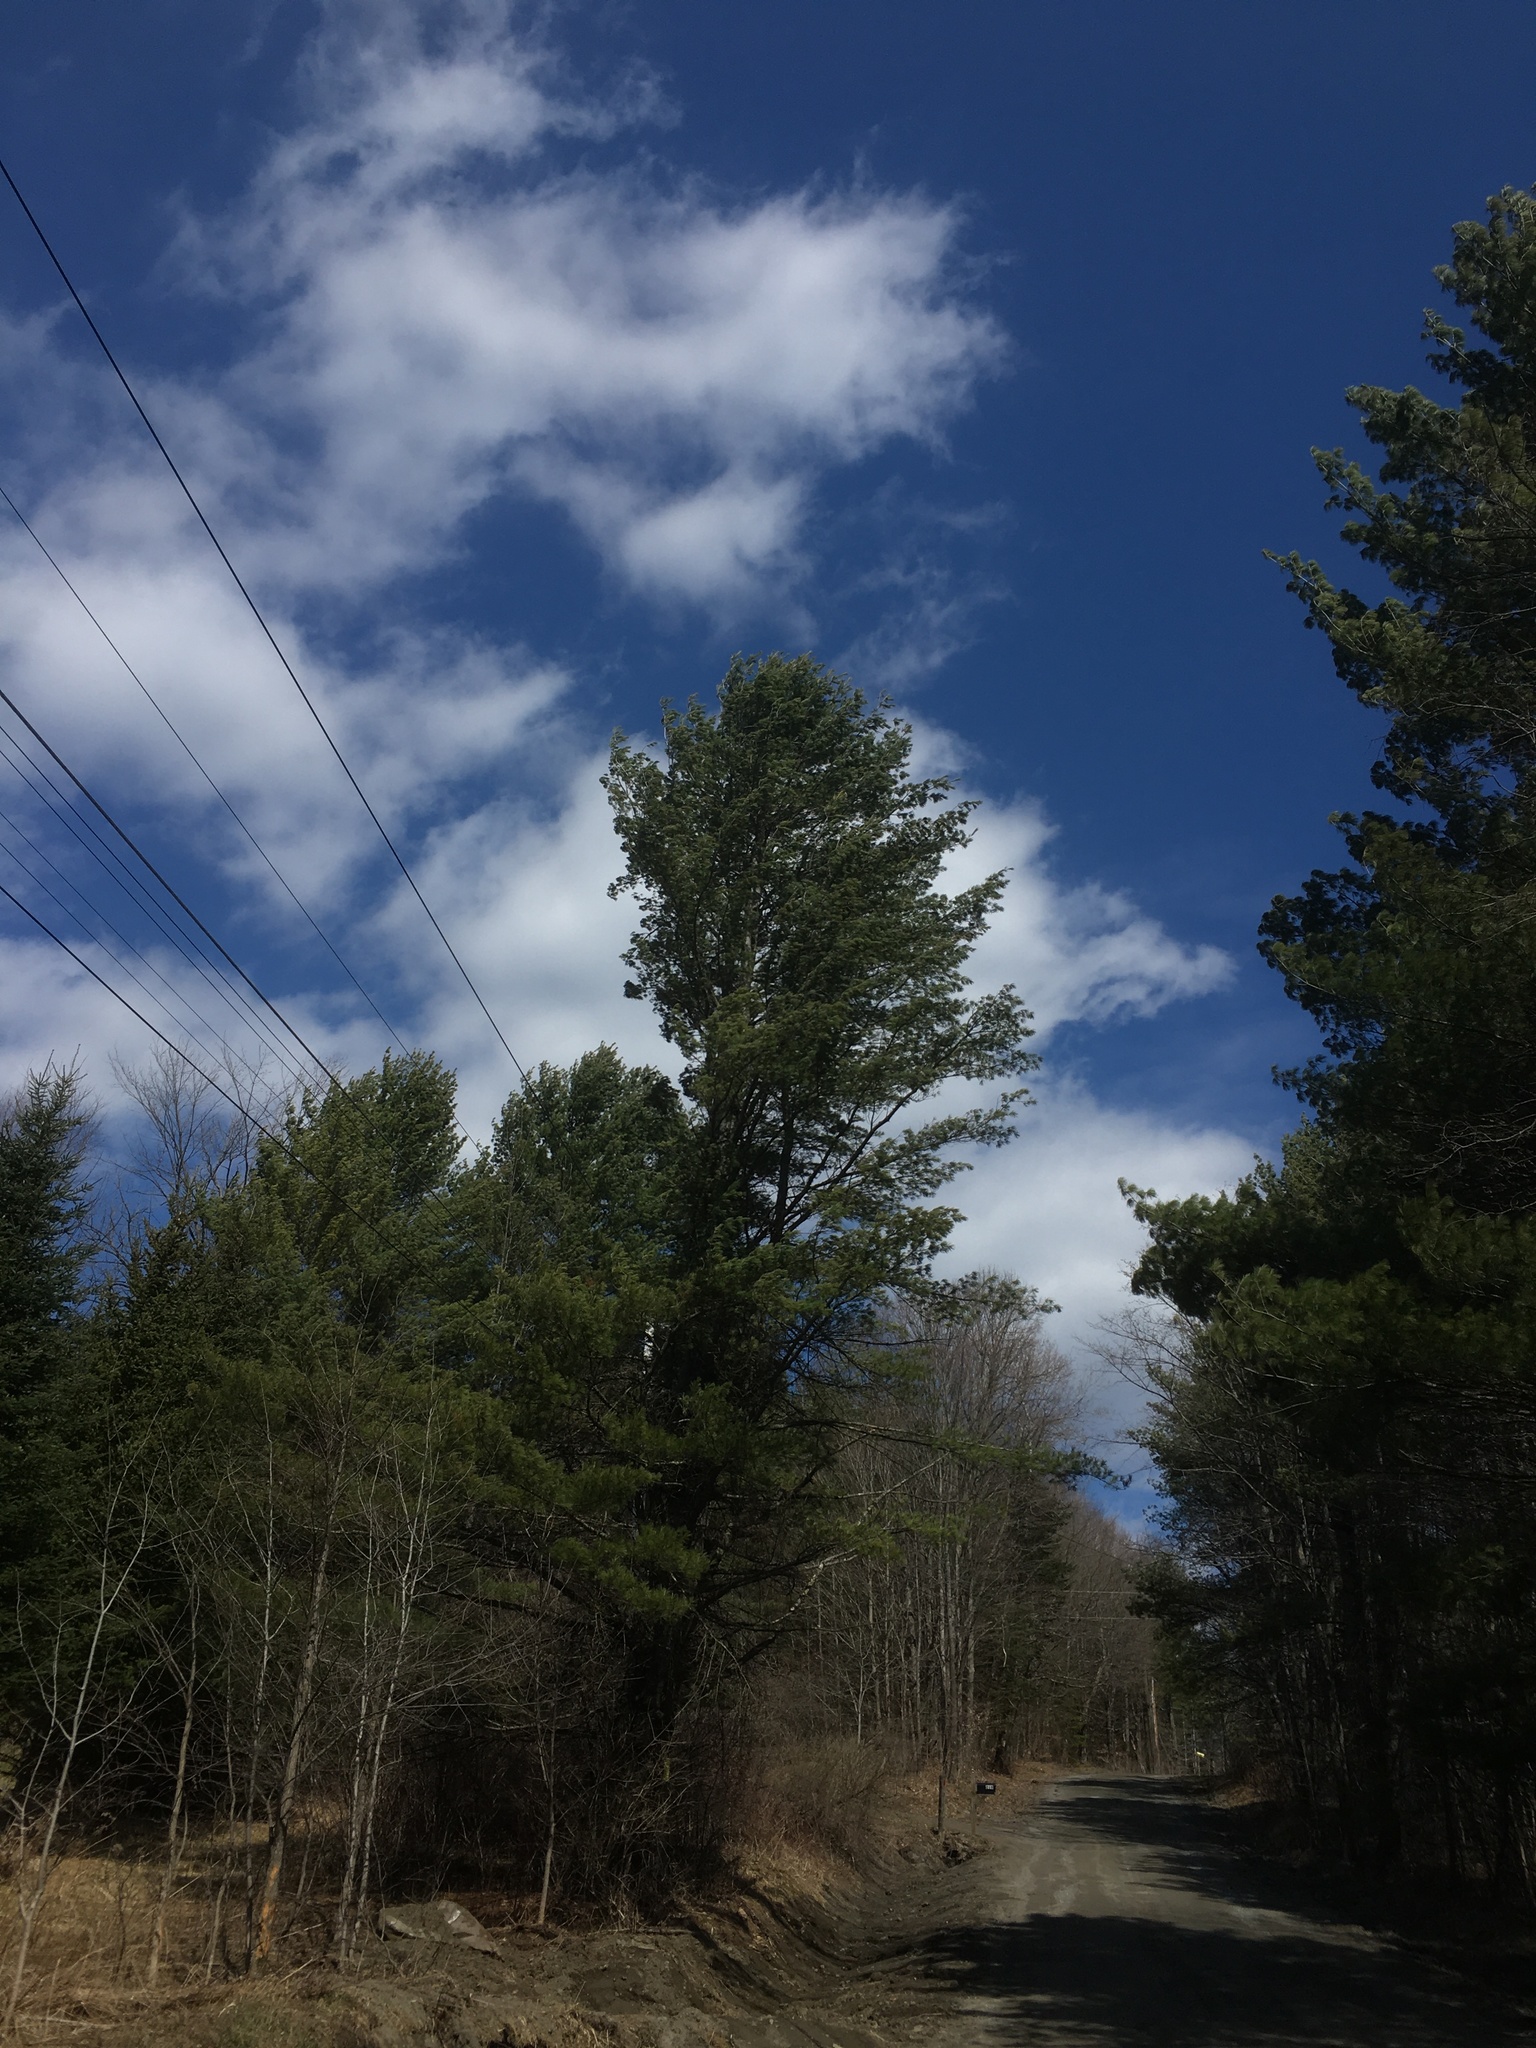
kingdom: Plantae
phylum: Tracheophyta
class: Pinopsida
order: Pinales
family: Pinaceae
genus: Pinus
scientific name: Pinus strobus
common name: Weymouth pine
